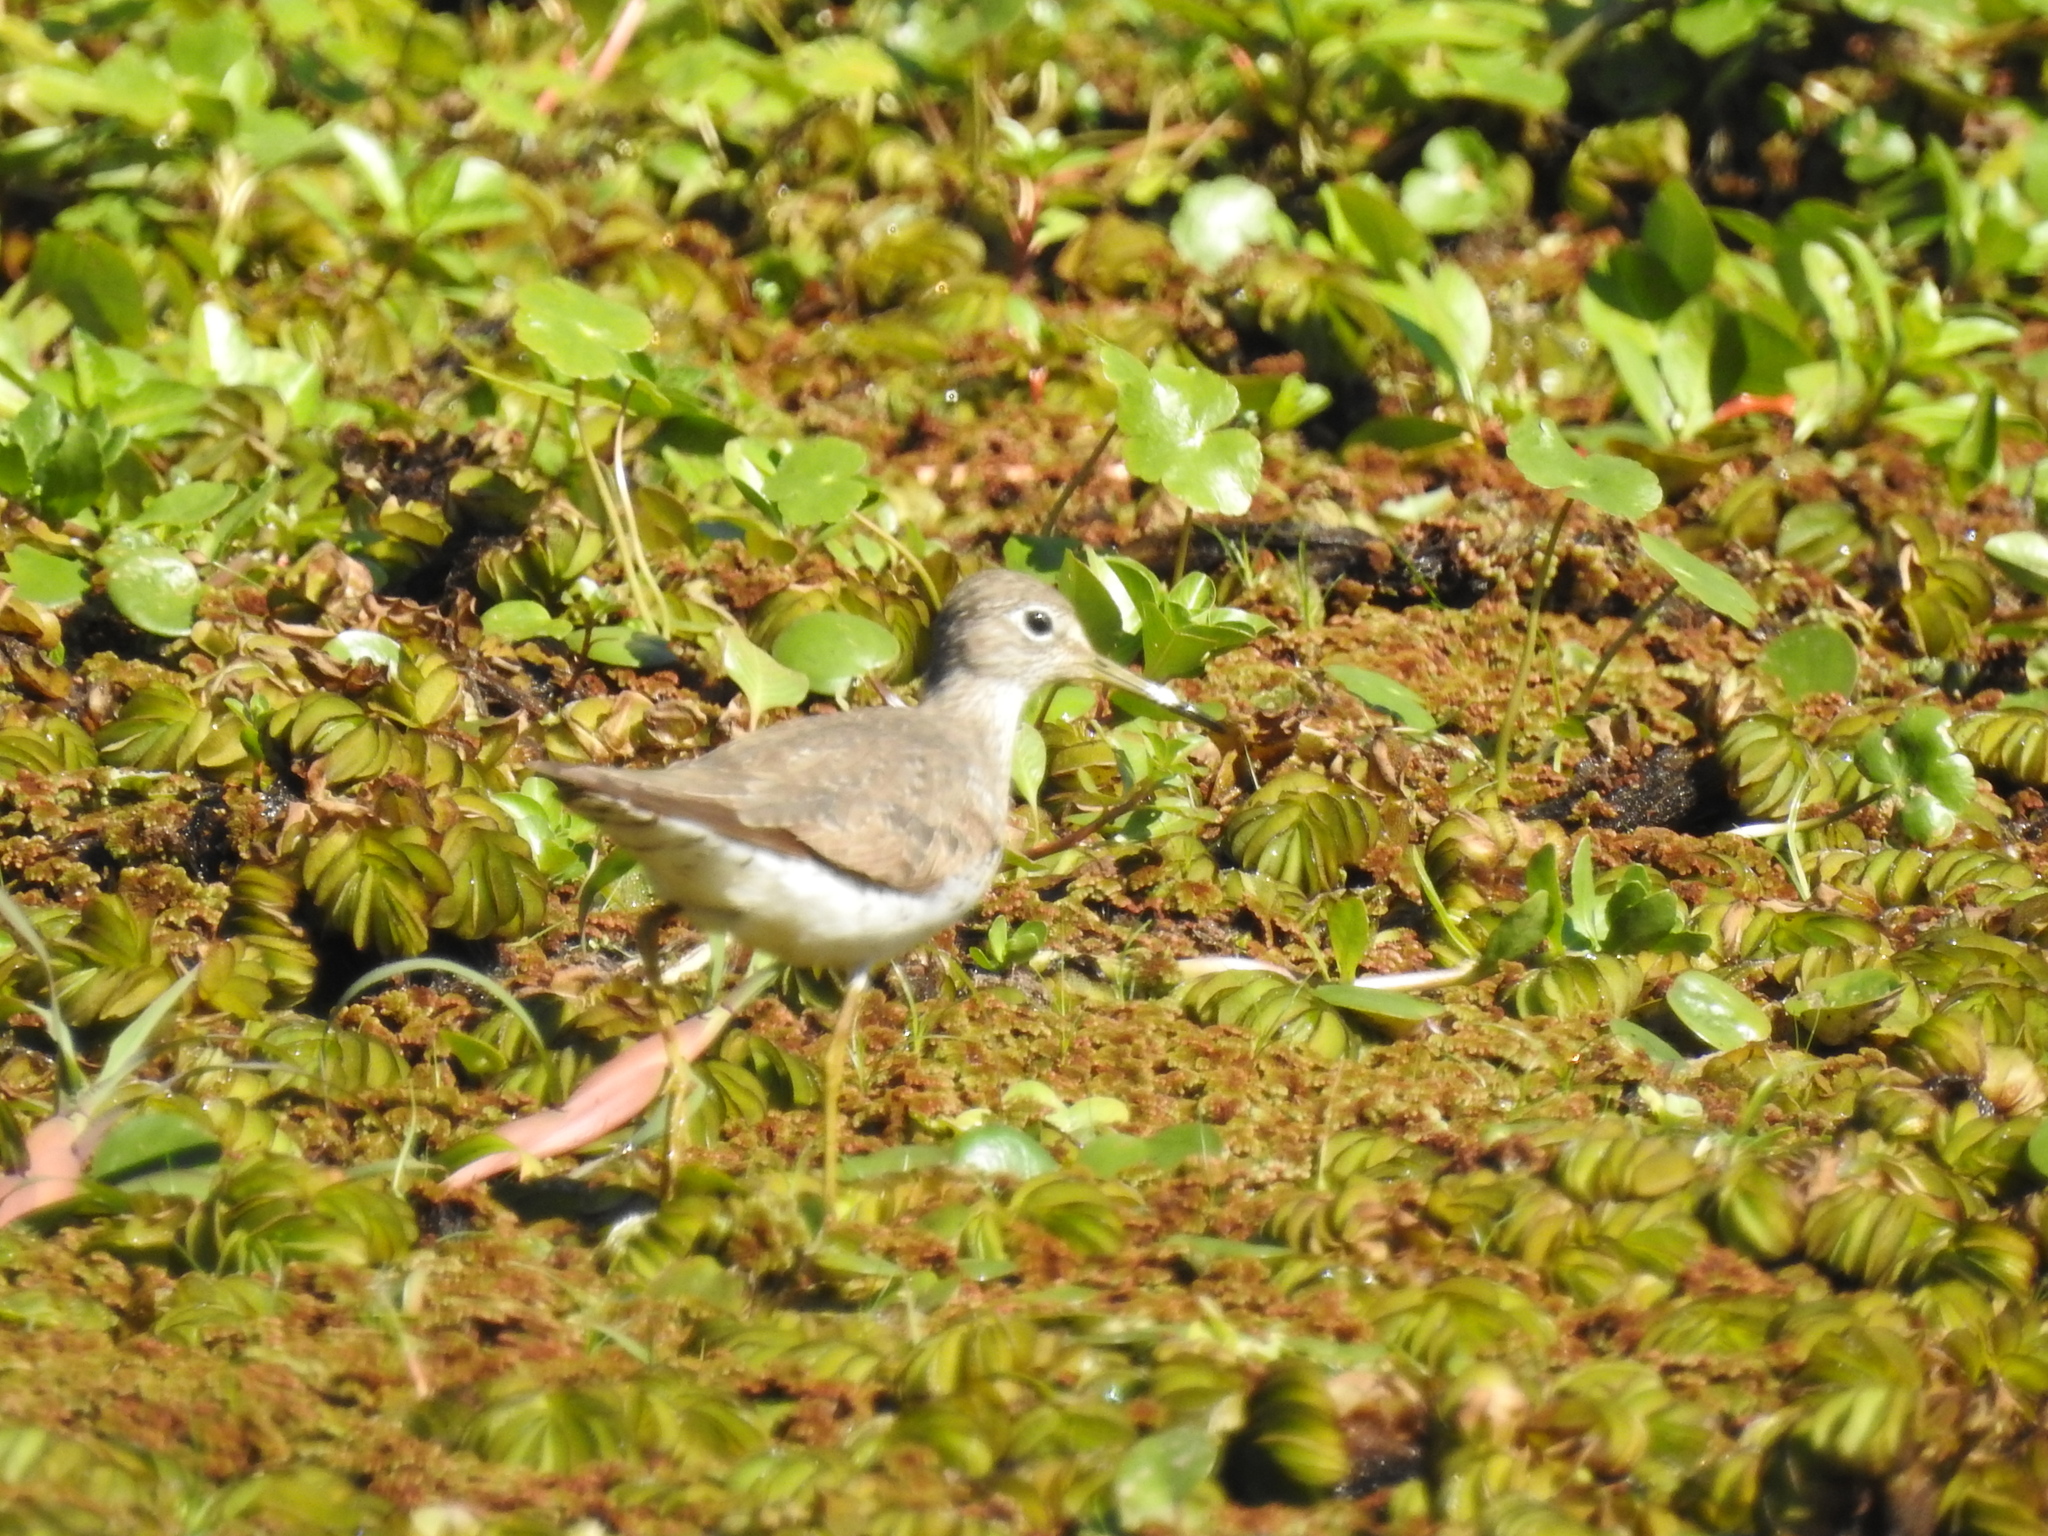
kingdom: Animalia
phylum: Chordata
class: Aves
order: Charadriiformes
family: Scolopacidae
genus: Tringa
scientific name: Tringa solitaria
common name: Solitary sandpiper
